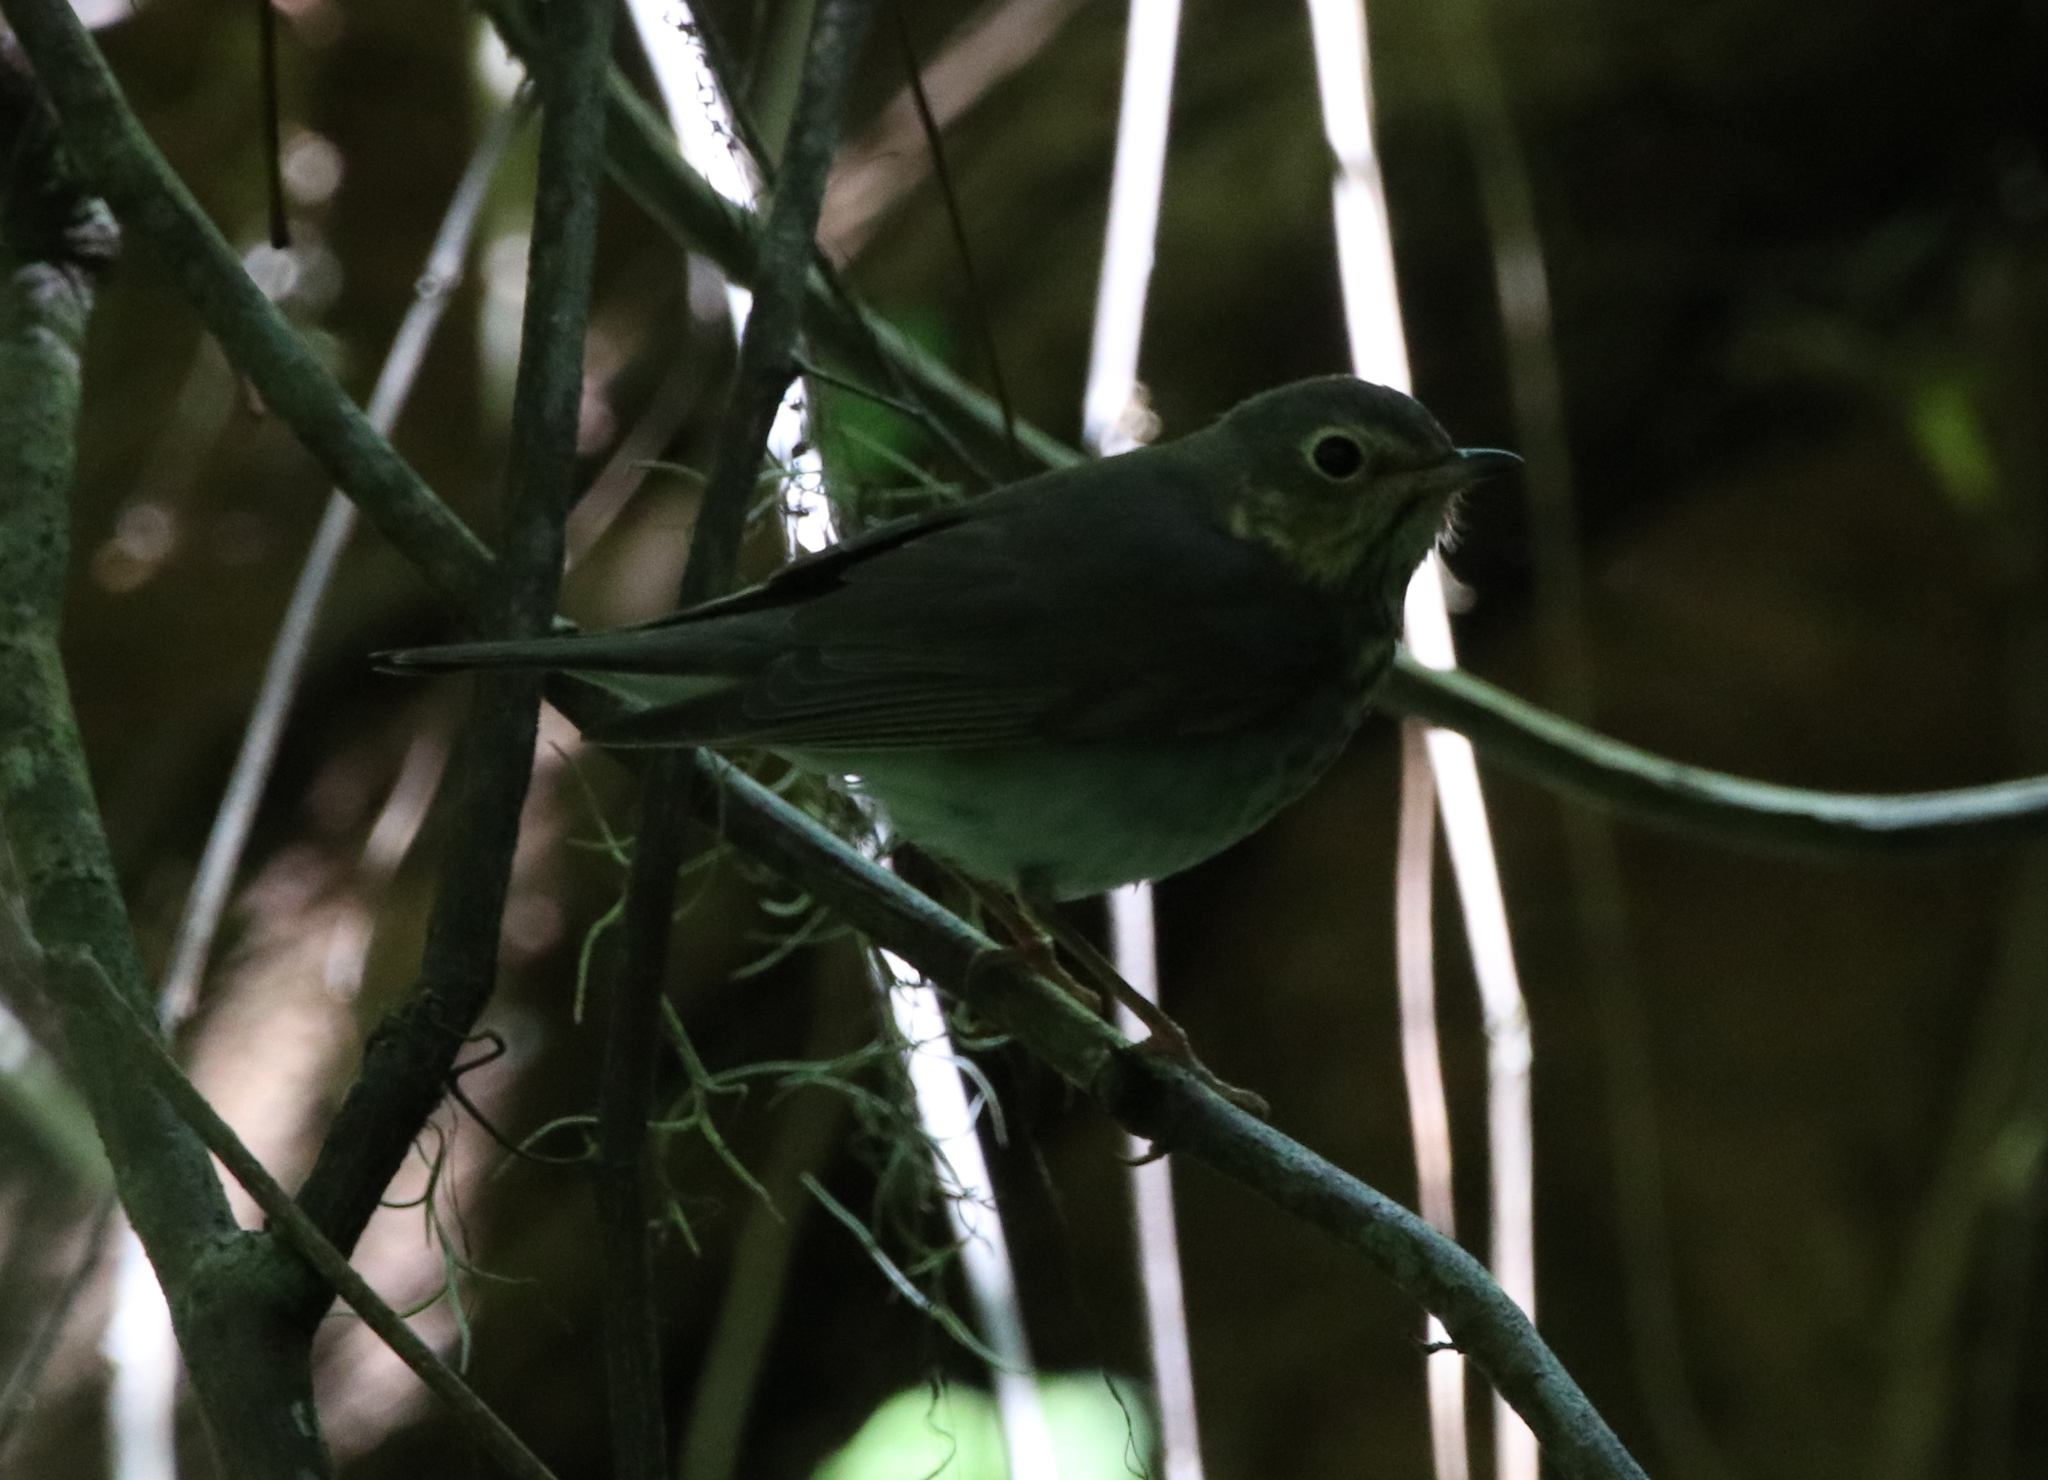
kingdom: Animalia
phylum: Chordata
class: Aves
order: Passeriformes
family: Turdidae
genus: Catharus
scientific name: Catharus ustulatus
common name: Swainson's thrush
